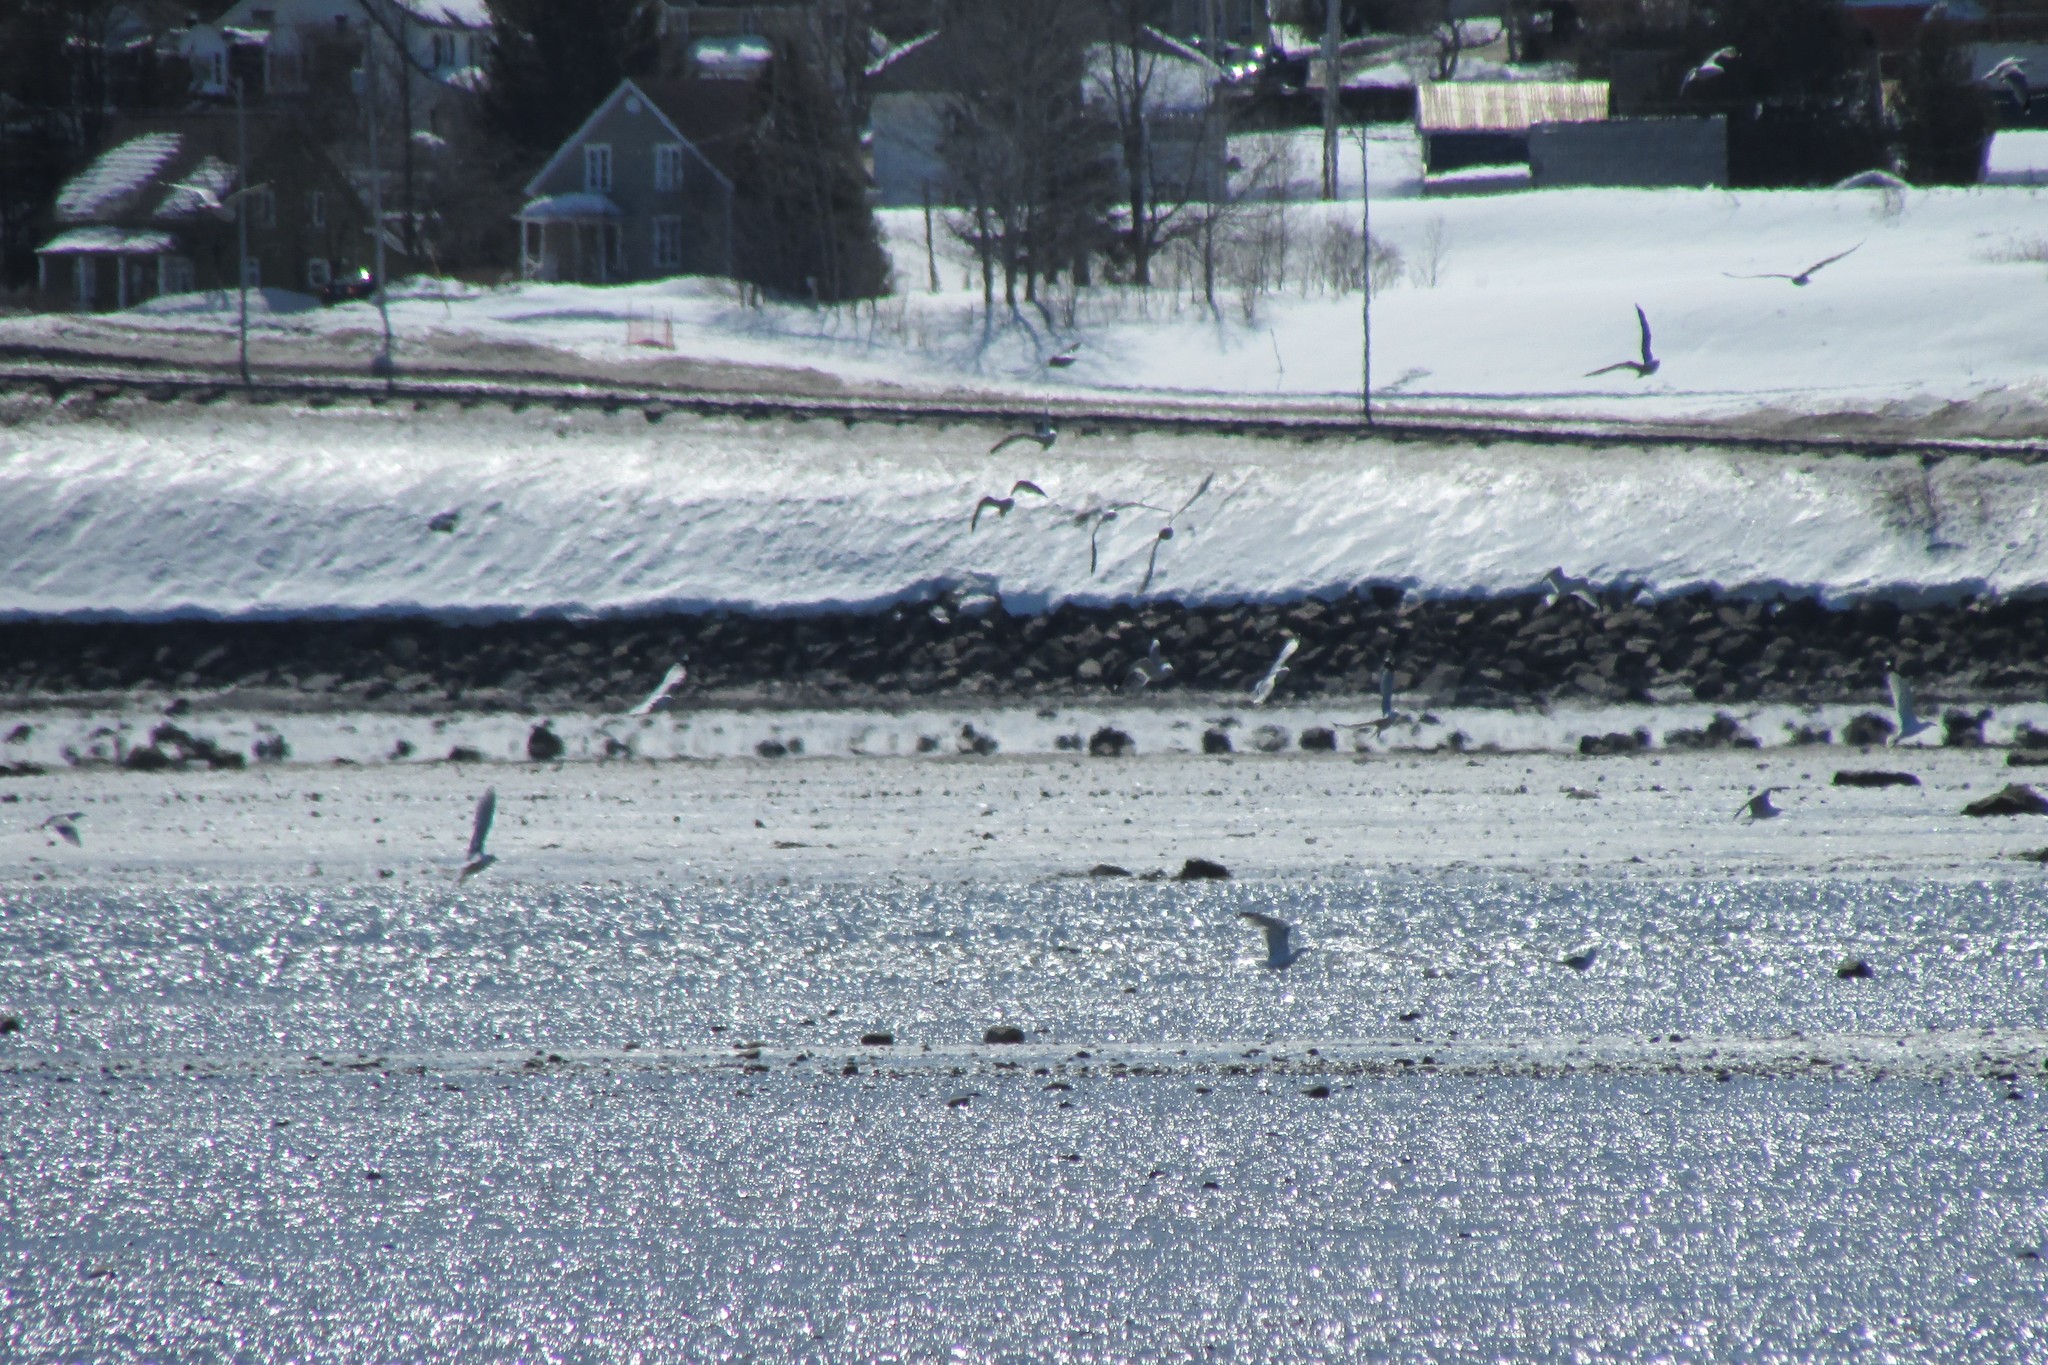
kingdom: Animalia
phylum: Chordata
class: Aves
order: Charadriiformes
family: Laridae
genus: Larus
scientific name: Larus delawarensis
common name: Ring-billed gull
